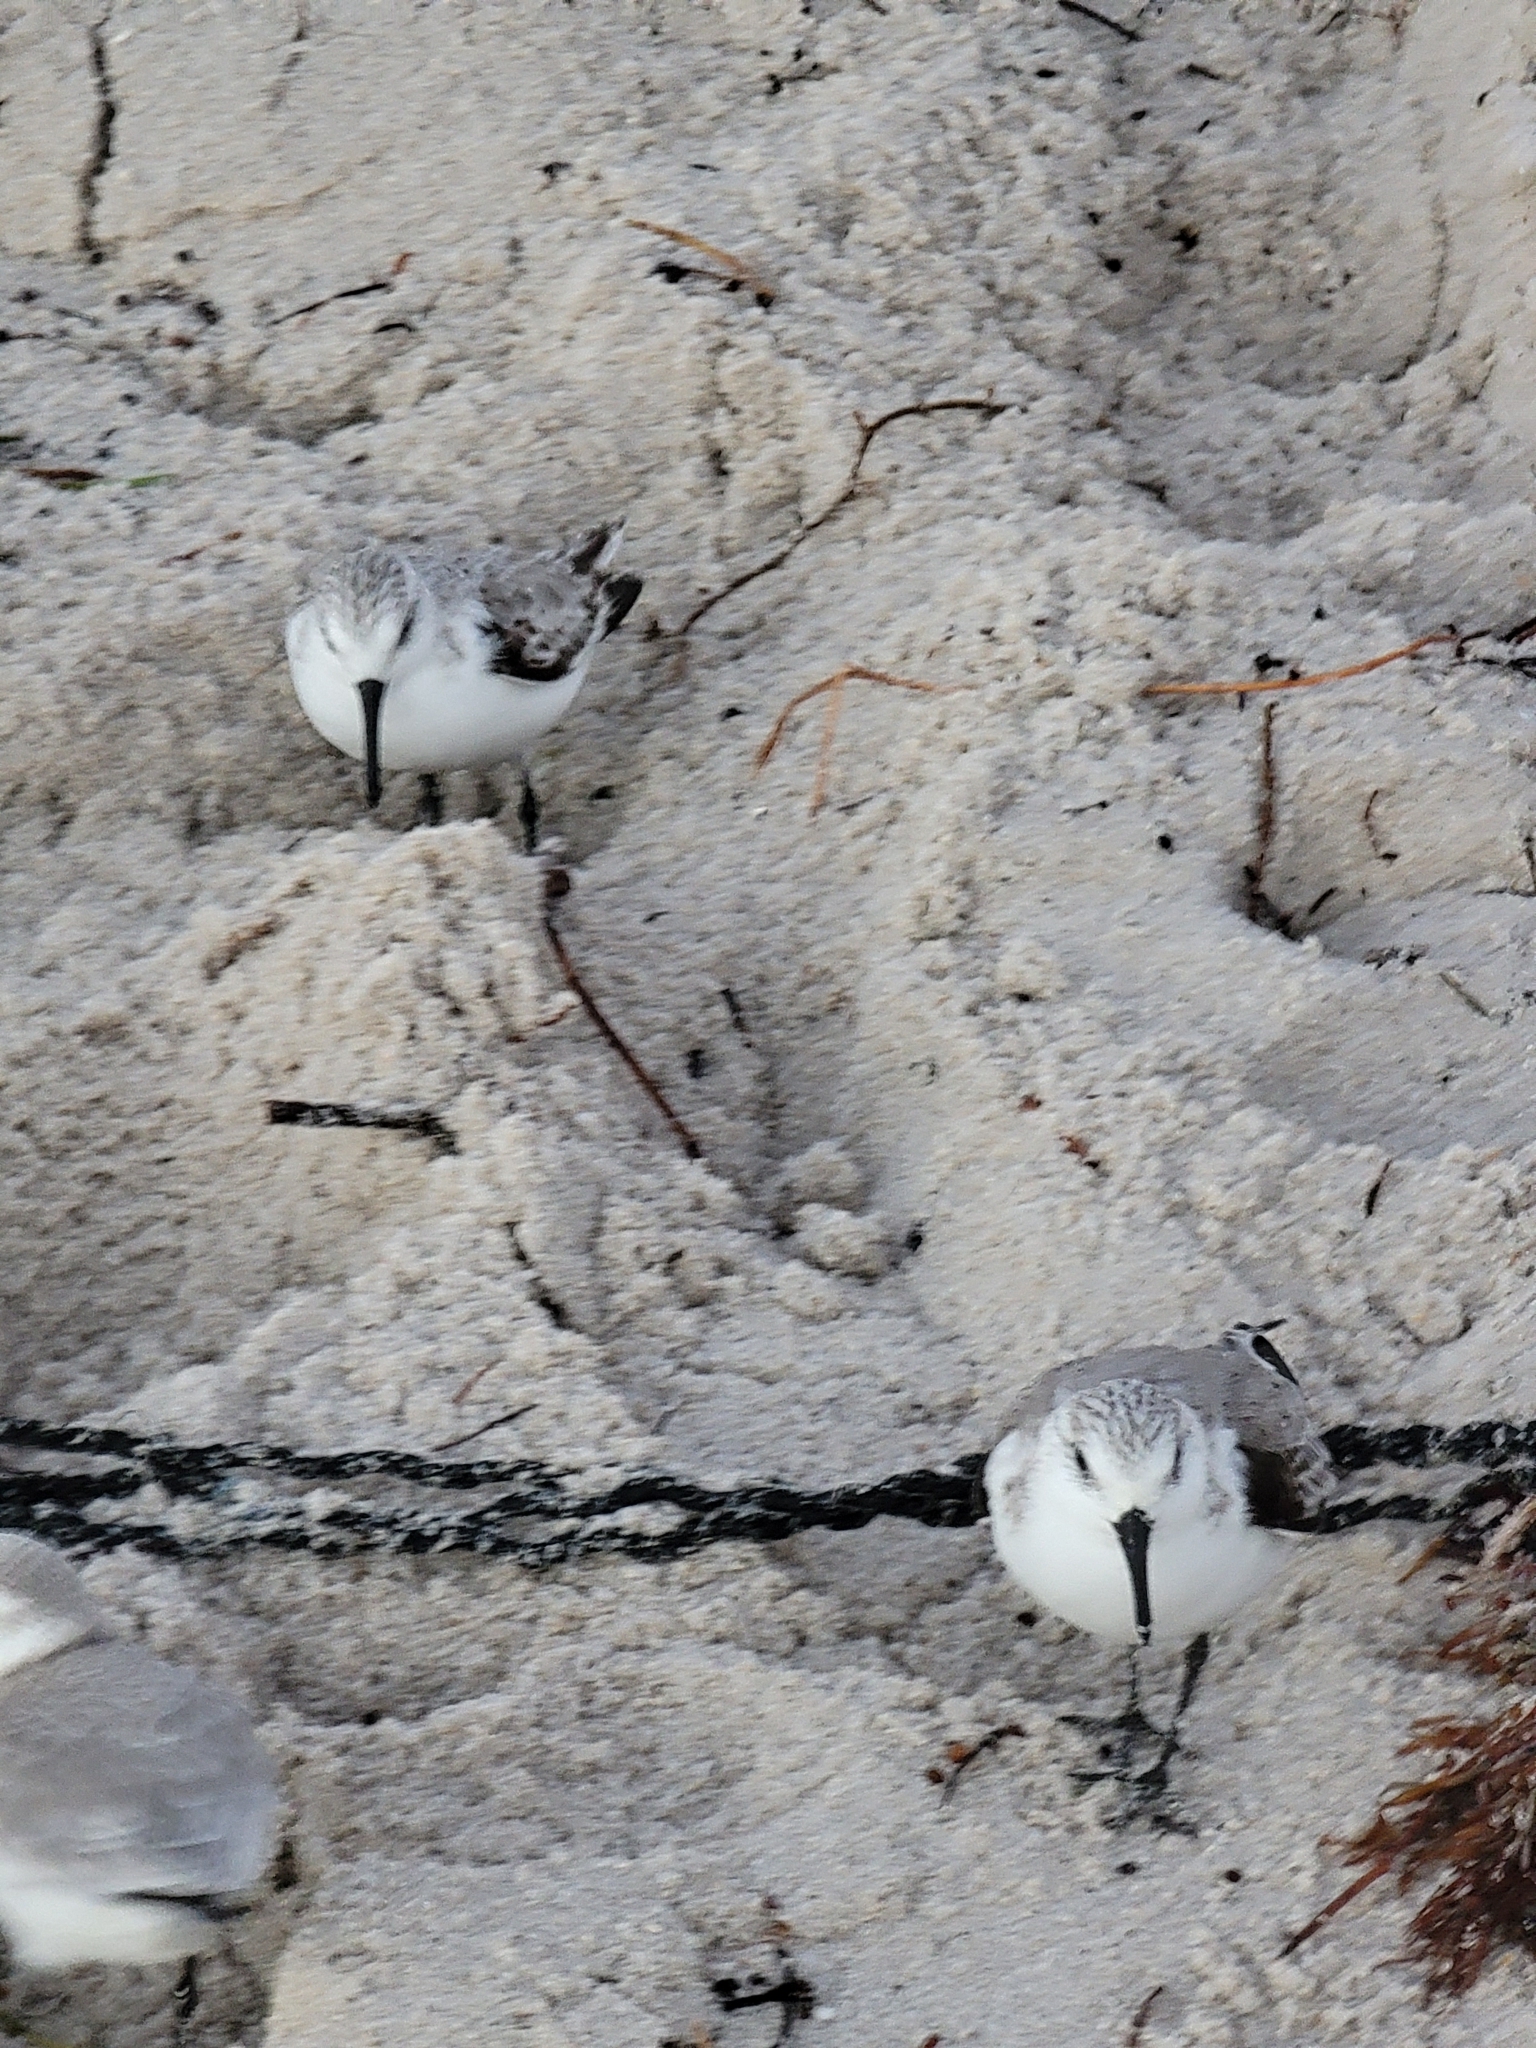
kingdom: Animalia
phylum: Chordata
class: Aves
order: Charadriiformes
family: Scolopacidae
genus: Calidris
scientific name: Calidris alba
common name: Sanderling
